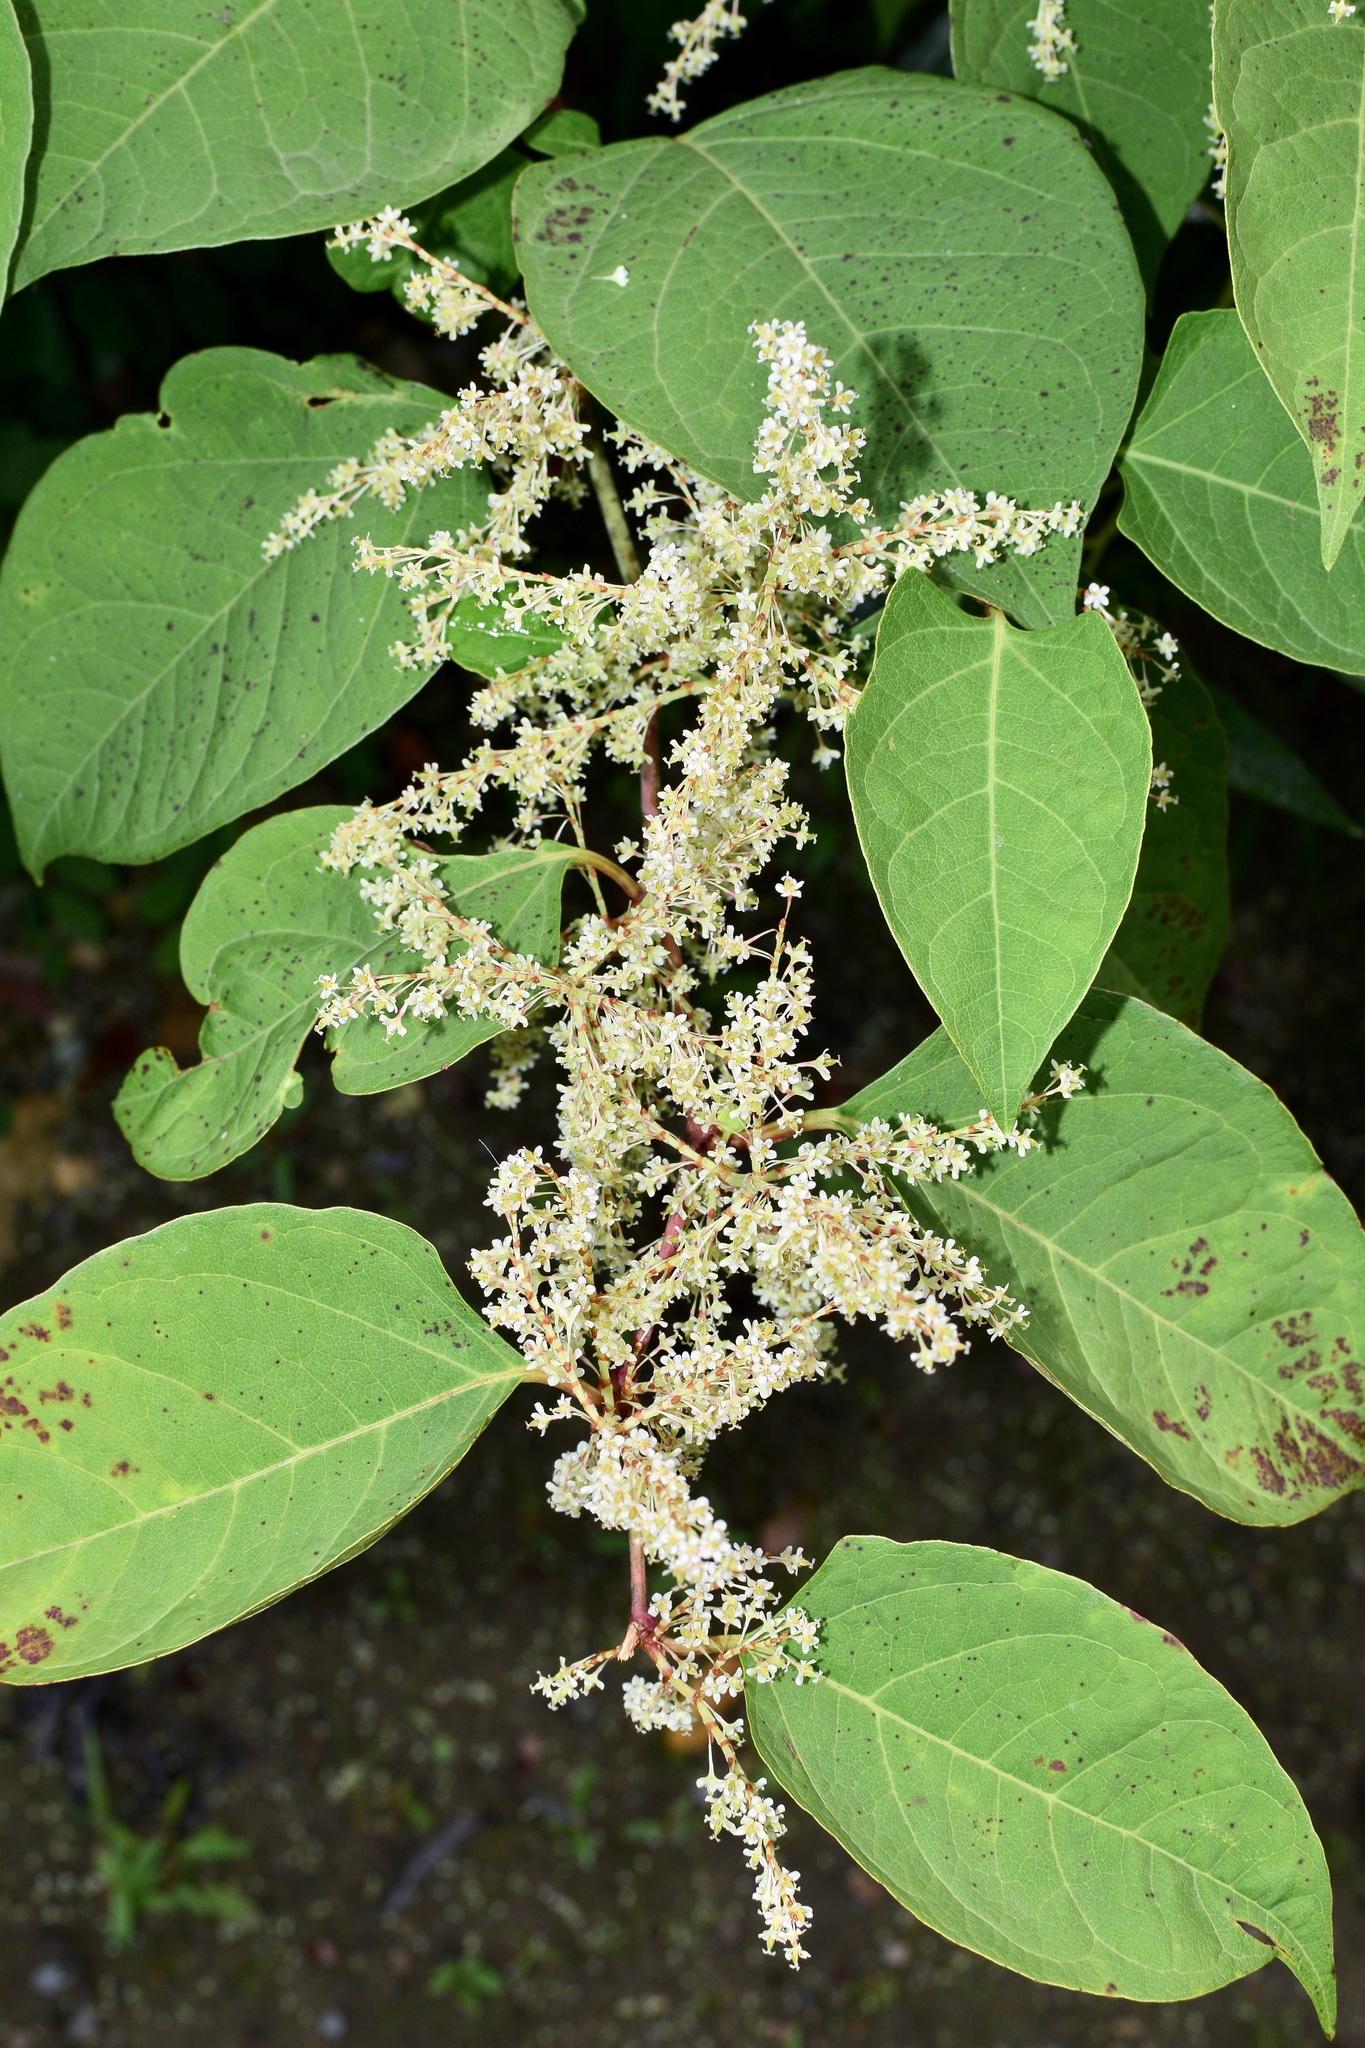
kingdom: Plantae
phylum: Tracheophyta
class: Magnoliopsida
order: Caryophyllales
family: Polygonaceae
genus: Reynoutria
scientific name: Reynoutria japonica
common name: Japanese knotweed
